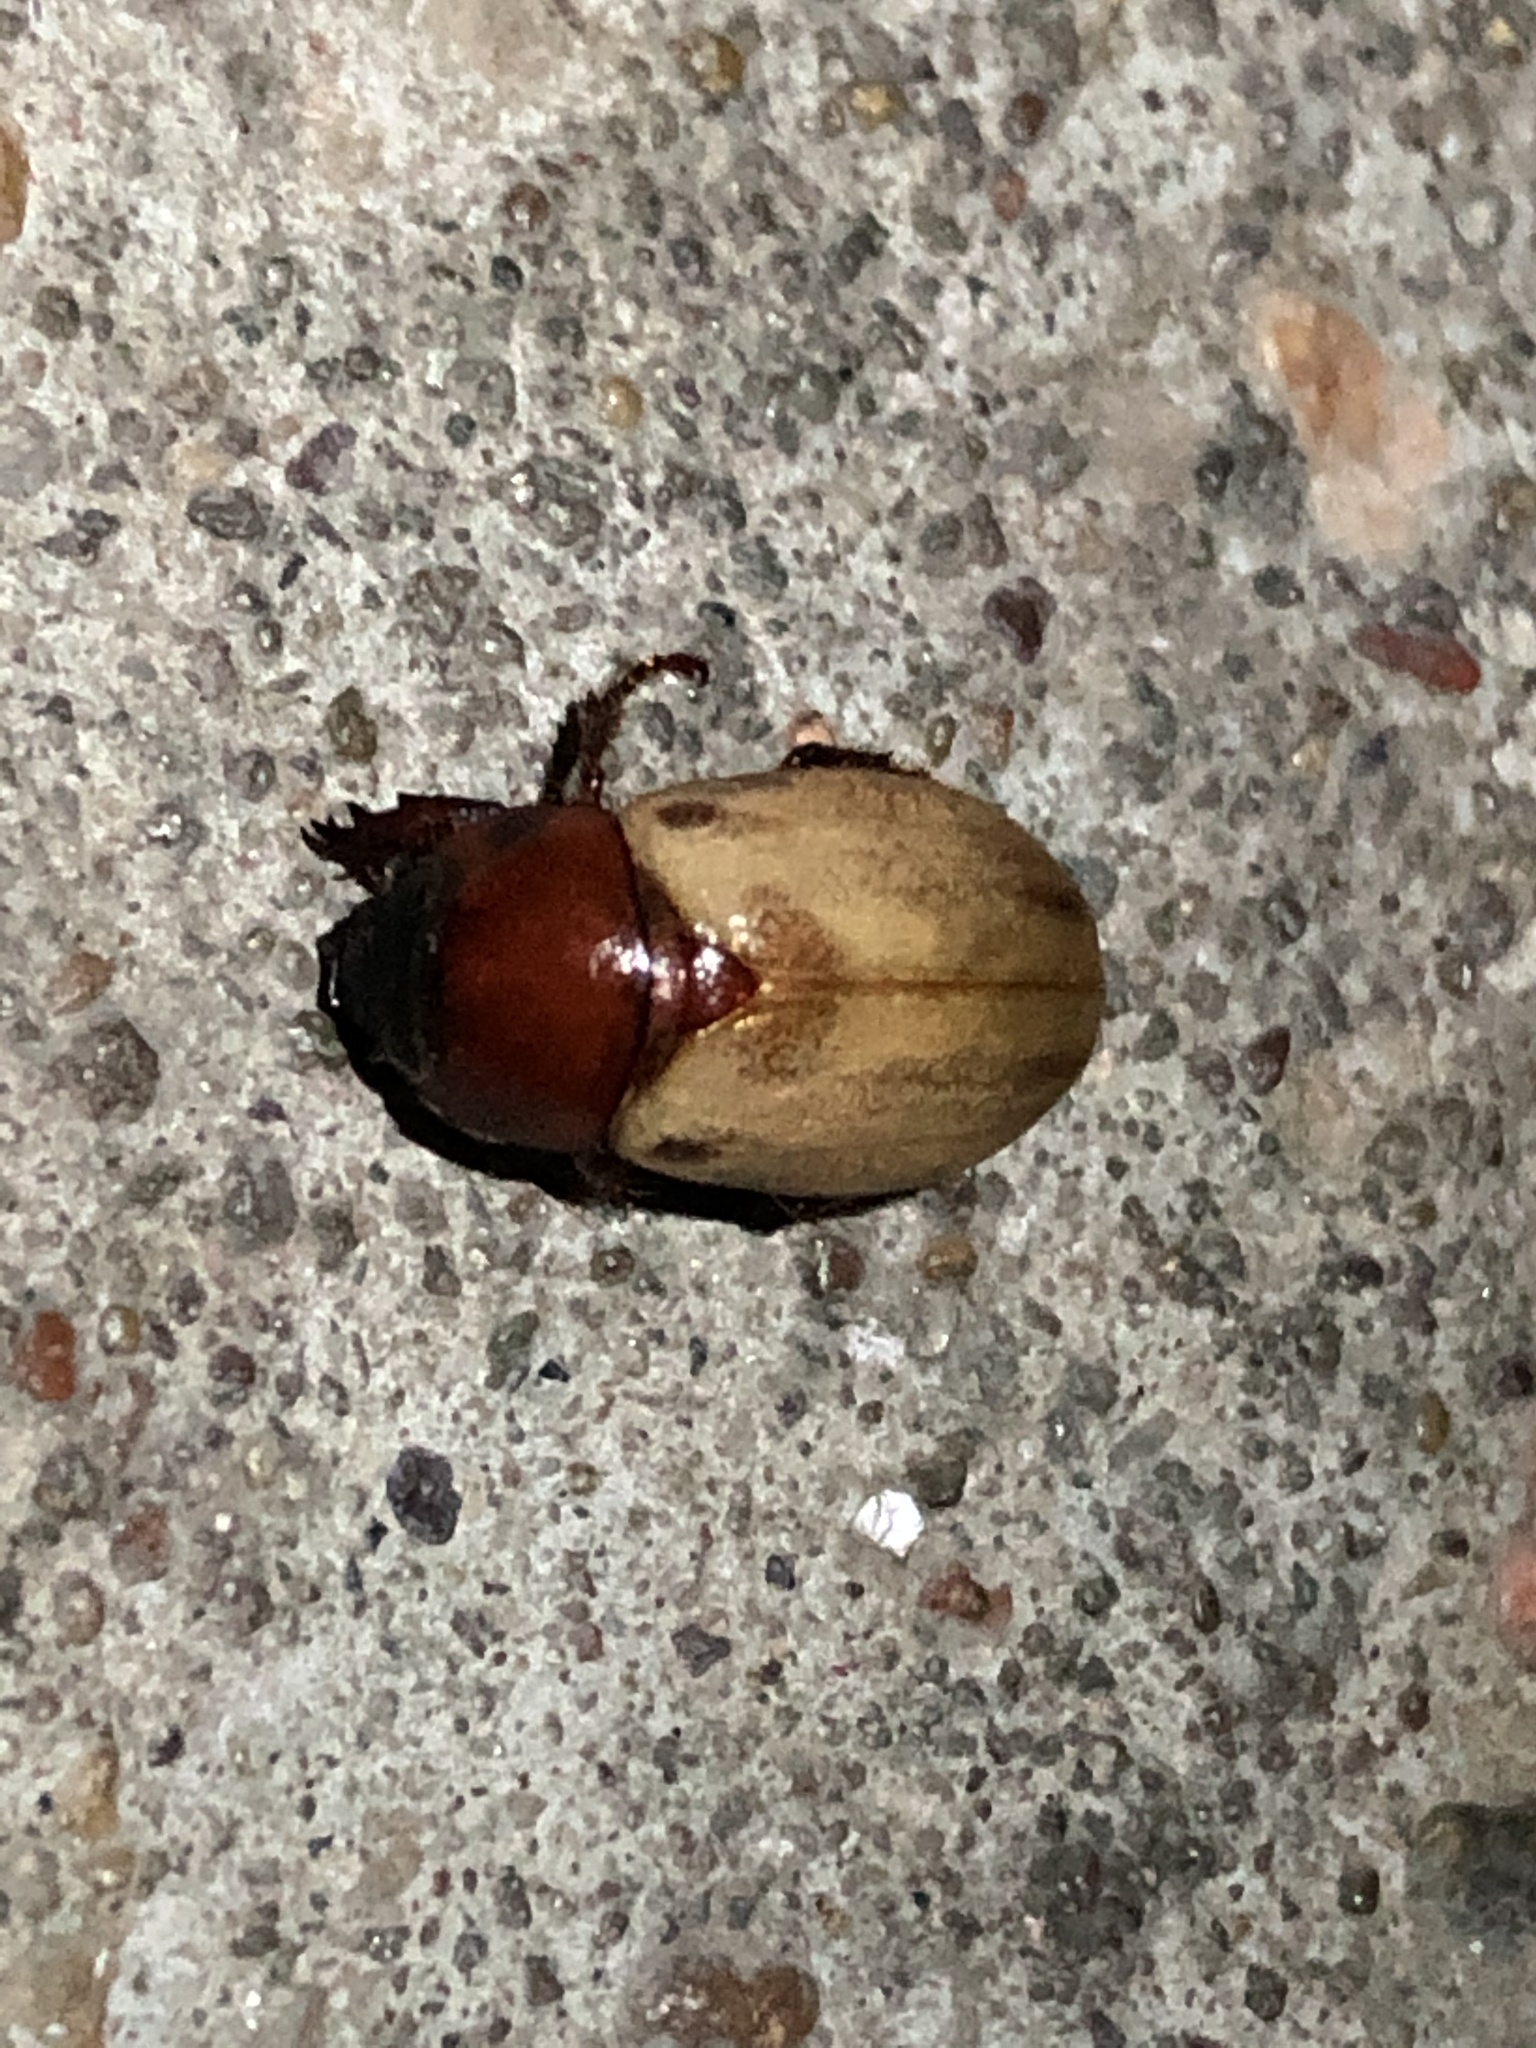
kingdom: Animalia
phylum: Arthropoda
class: Insecta
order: Coleoptera
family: Scarabaeidae
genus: Cyclocephala
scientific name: Cyclocephala melanocephala
